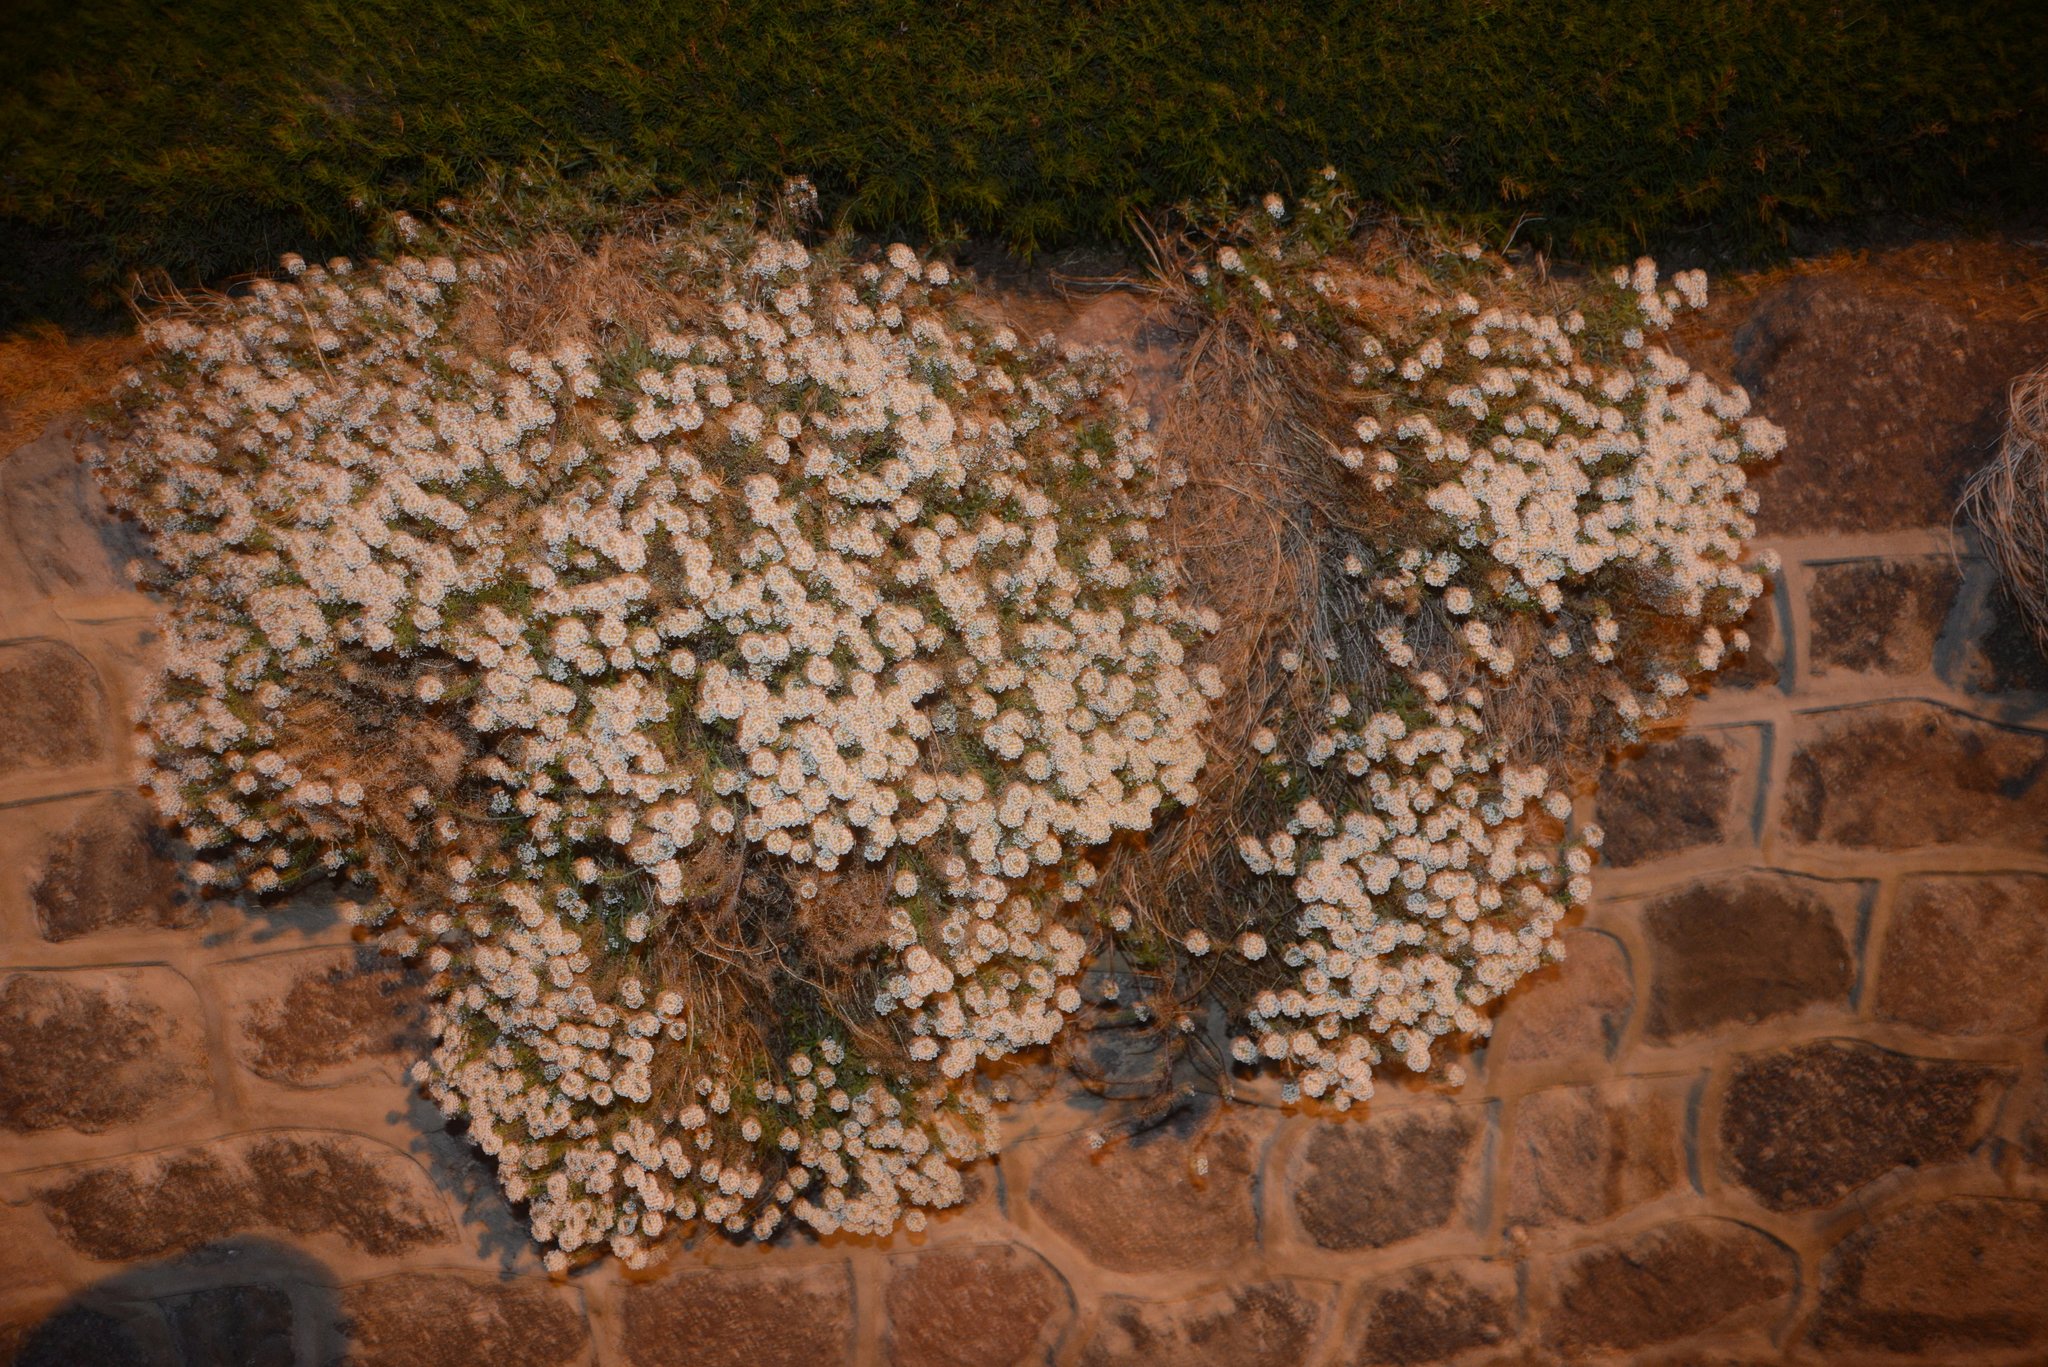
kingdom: Plantae
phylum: Tracheophyta
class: Magnoliopsida
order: Brassicales
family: Brassicaceae
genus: Lobularia
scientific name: Lobularia maritima
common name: Sweet alison
